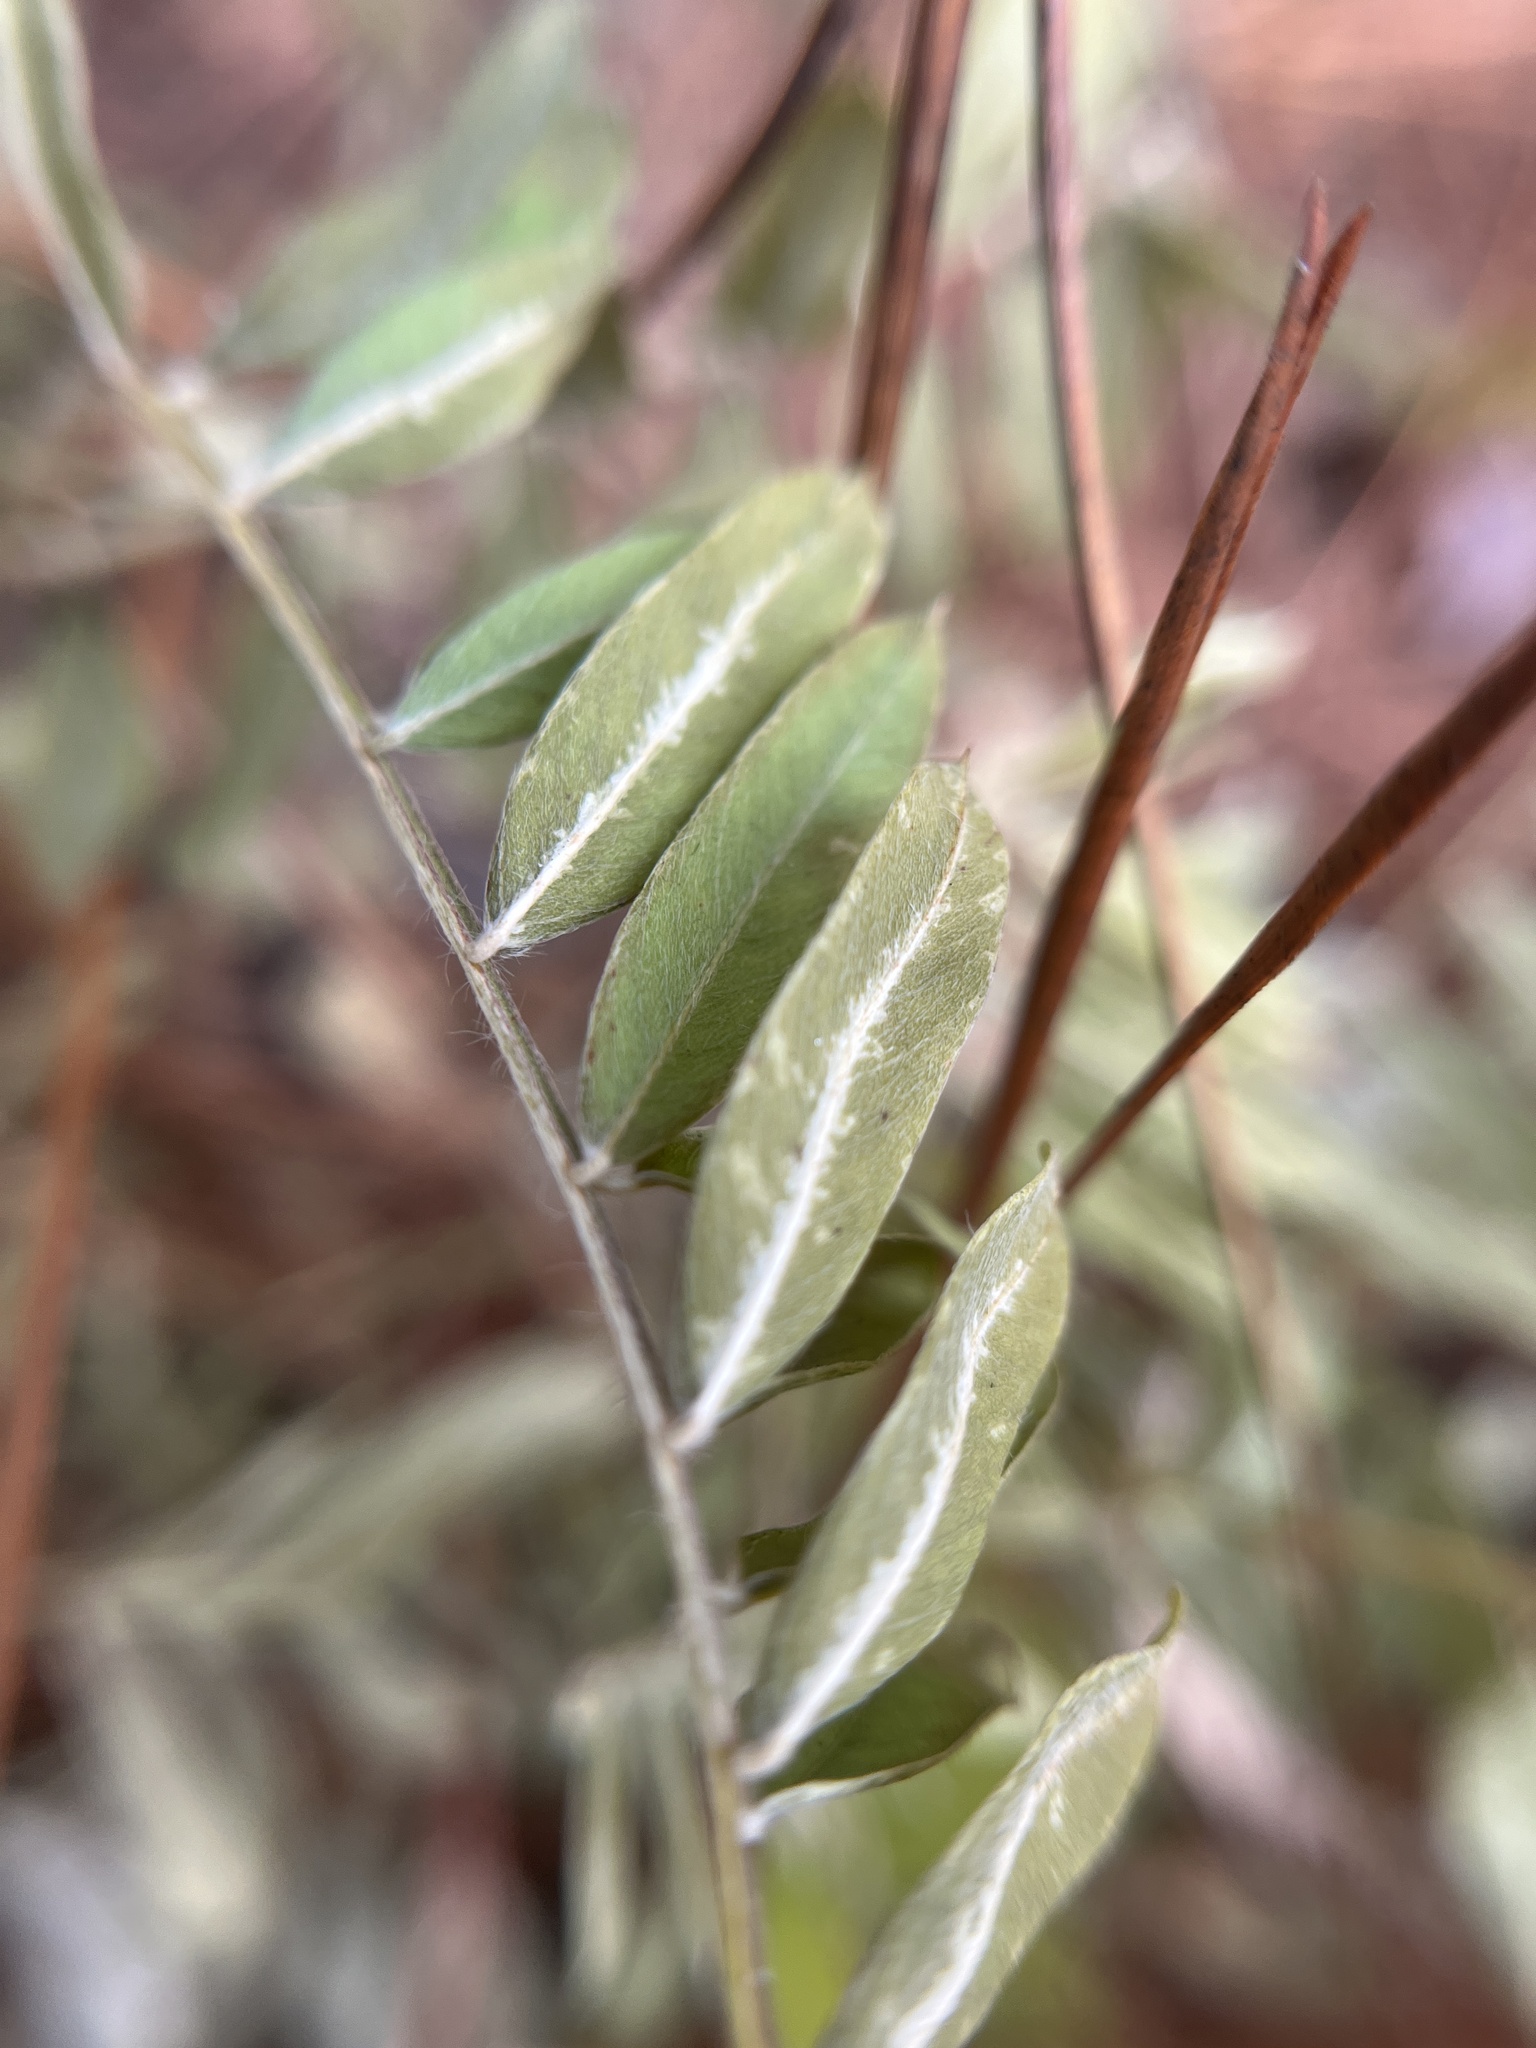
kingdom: Plantae
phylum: Tracheophyta
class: Magnoliopsida
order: Fabales
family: Fabaceae
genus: Tephrosia
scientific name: Tephrosia virginiana
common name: Rabbit-pea
